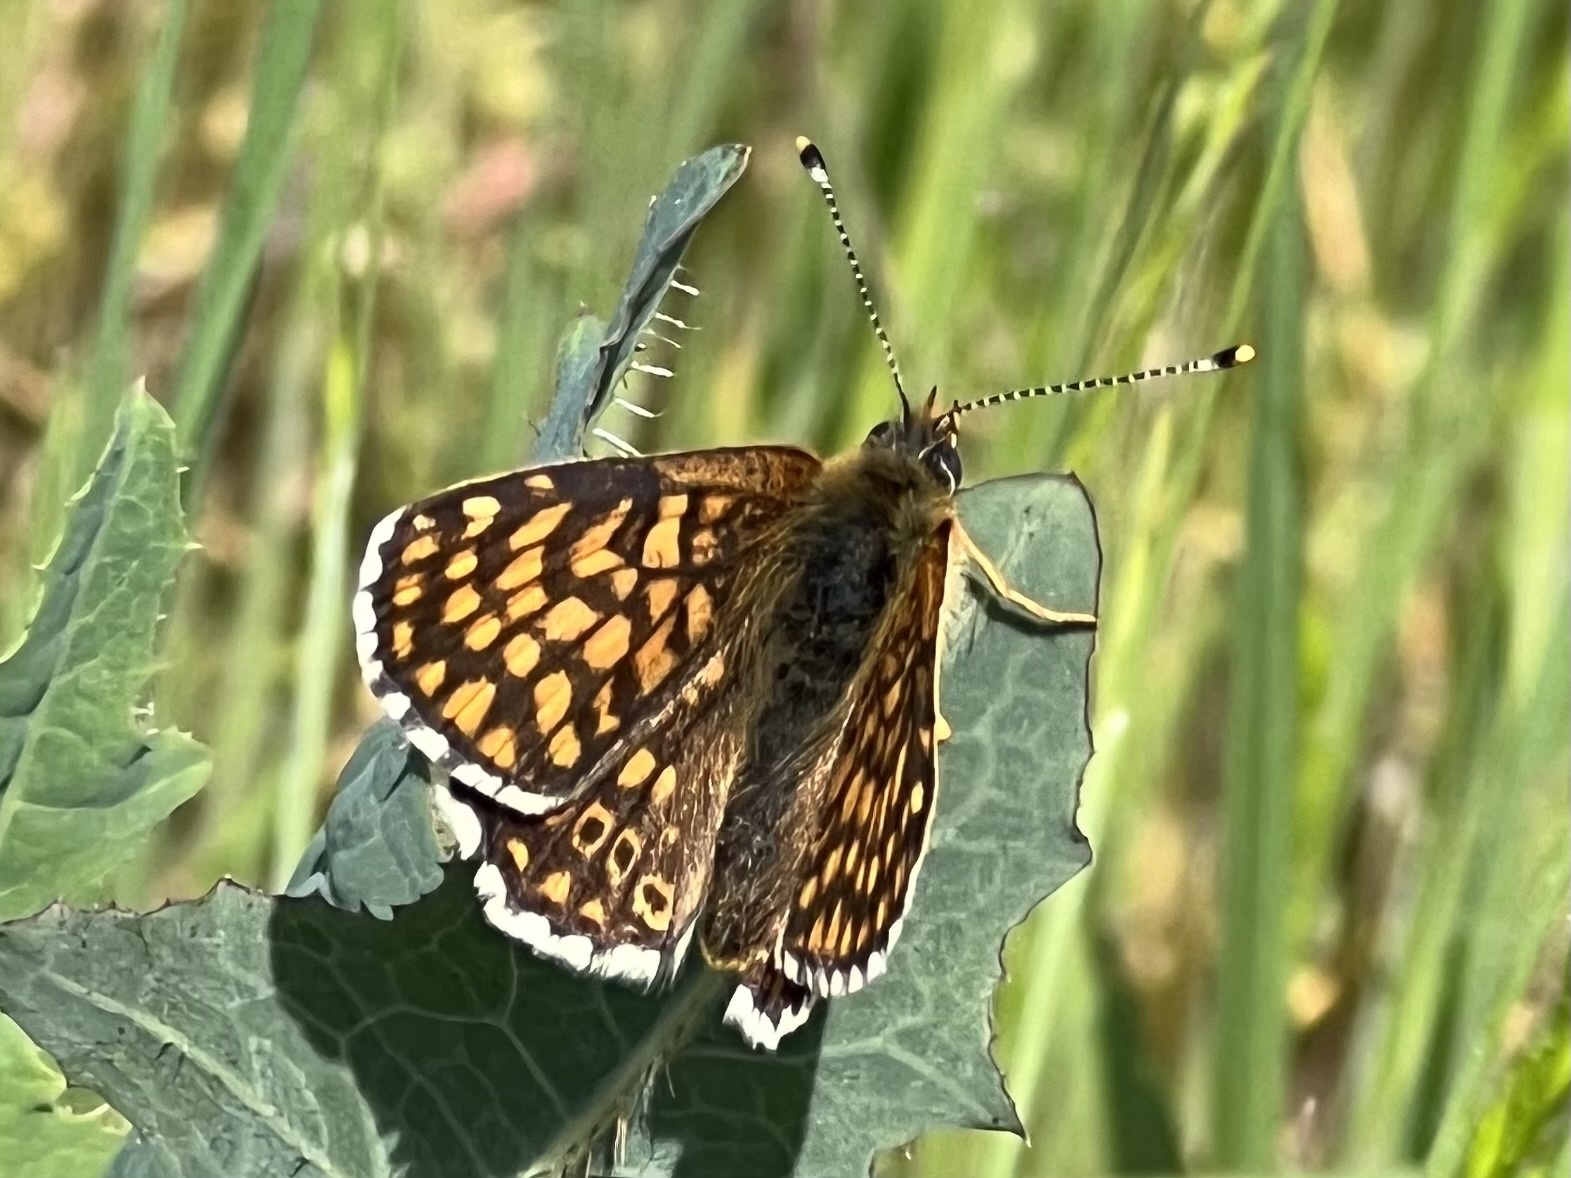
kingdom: Animalia
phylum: Arthropoda
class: Insecta
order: Lepidoptera
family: Nymphalidae
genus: Melitaea
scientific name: Melitaea cinxia
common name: Glanville fritillary
